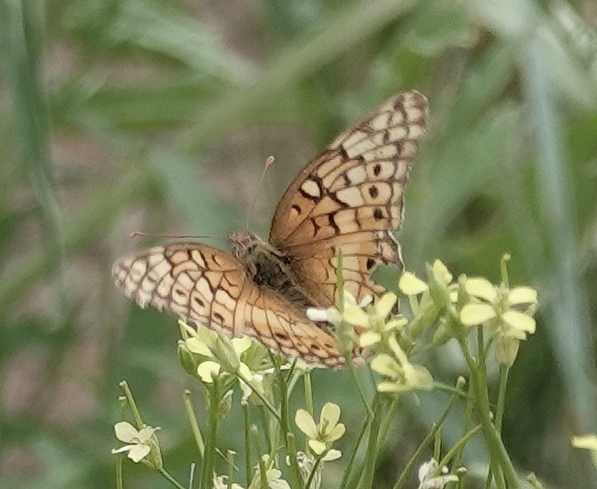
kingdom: Animalia
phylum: Arthropoda
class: Insecta
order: Lepidoptera
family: Nymphalidae
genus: Euptoieta
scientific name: Euptoieta claudia
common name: Variegated fritillary
